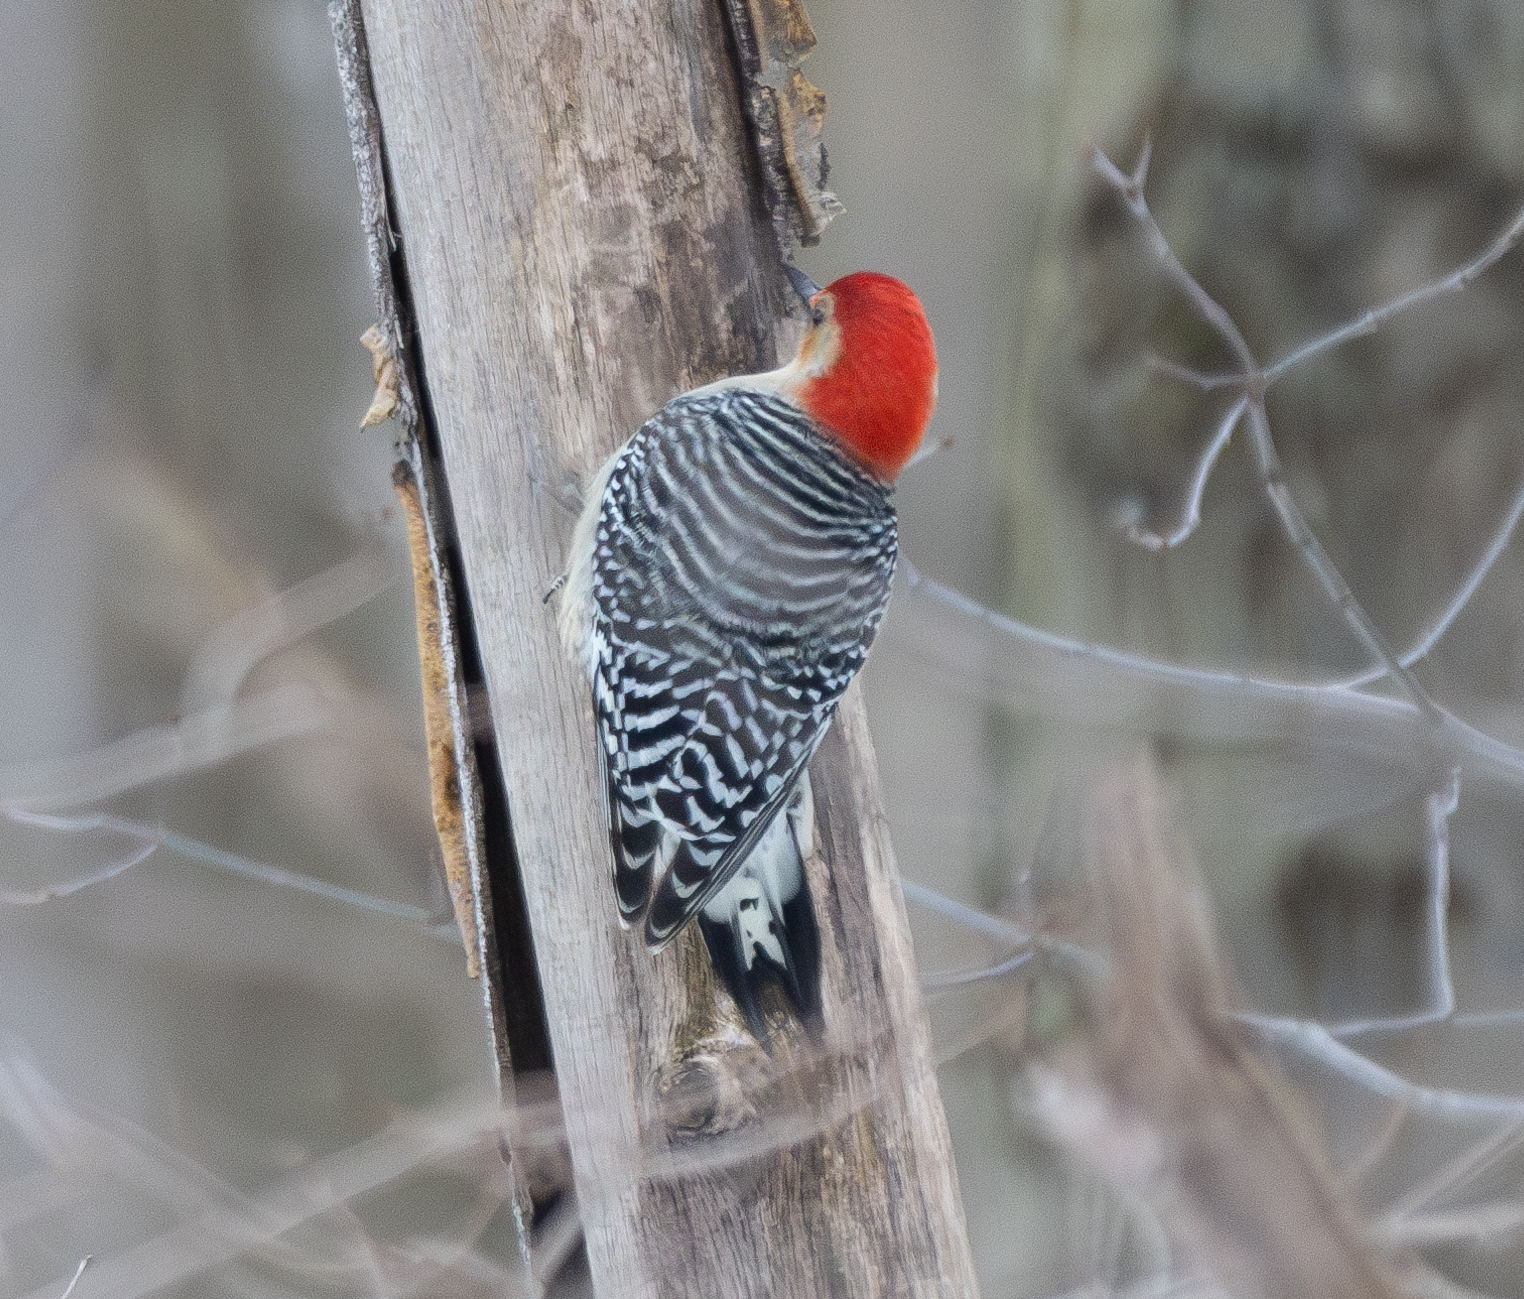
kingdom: Animalia
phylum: Chordata
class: Aves
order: Piciformes
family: Picidae
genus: Melanerpes
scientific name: Melanerpes carolinus
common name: Red-bellied woodpecker
